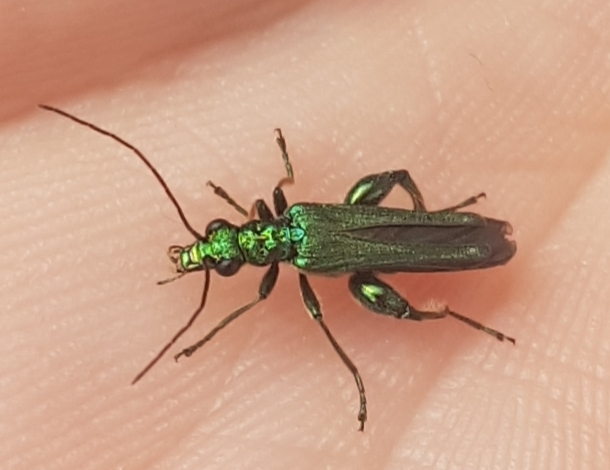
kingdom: Animalia
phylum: Arthropoda
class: Insecta
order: Coleoptera
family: Oedemeridae
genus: Oedemera
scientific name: Oedemera nobilis
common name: Swollen-thighed beetle
